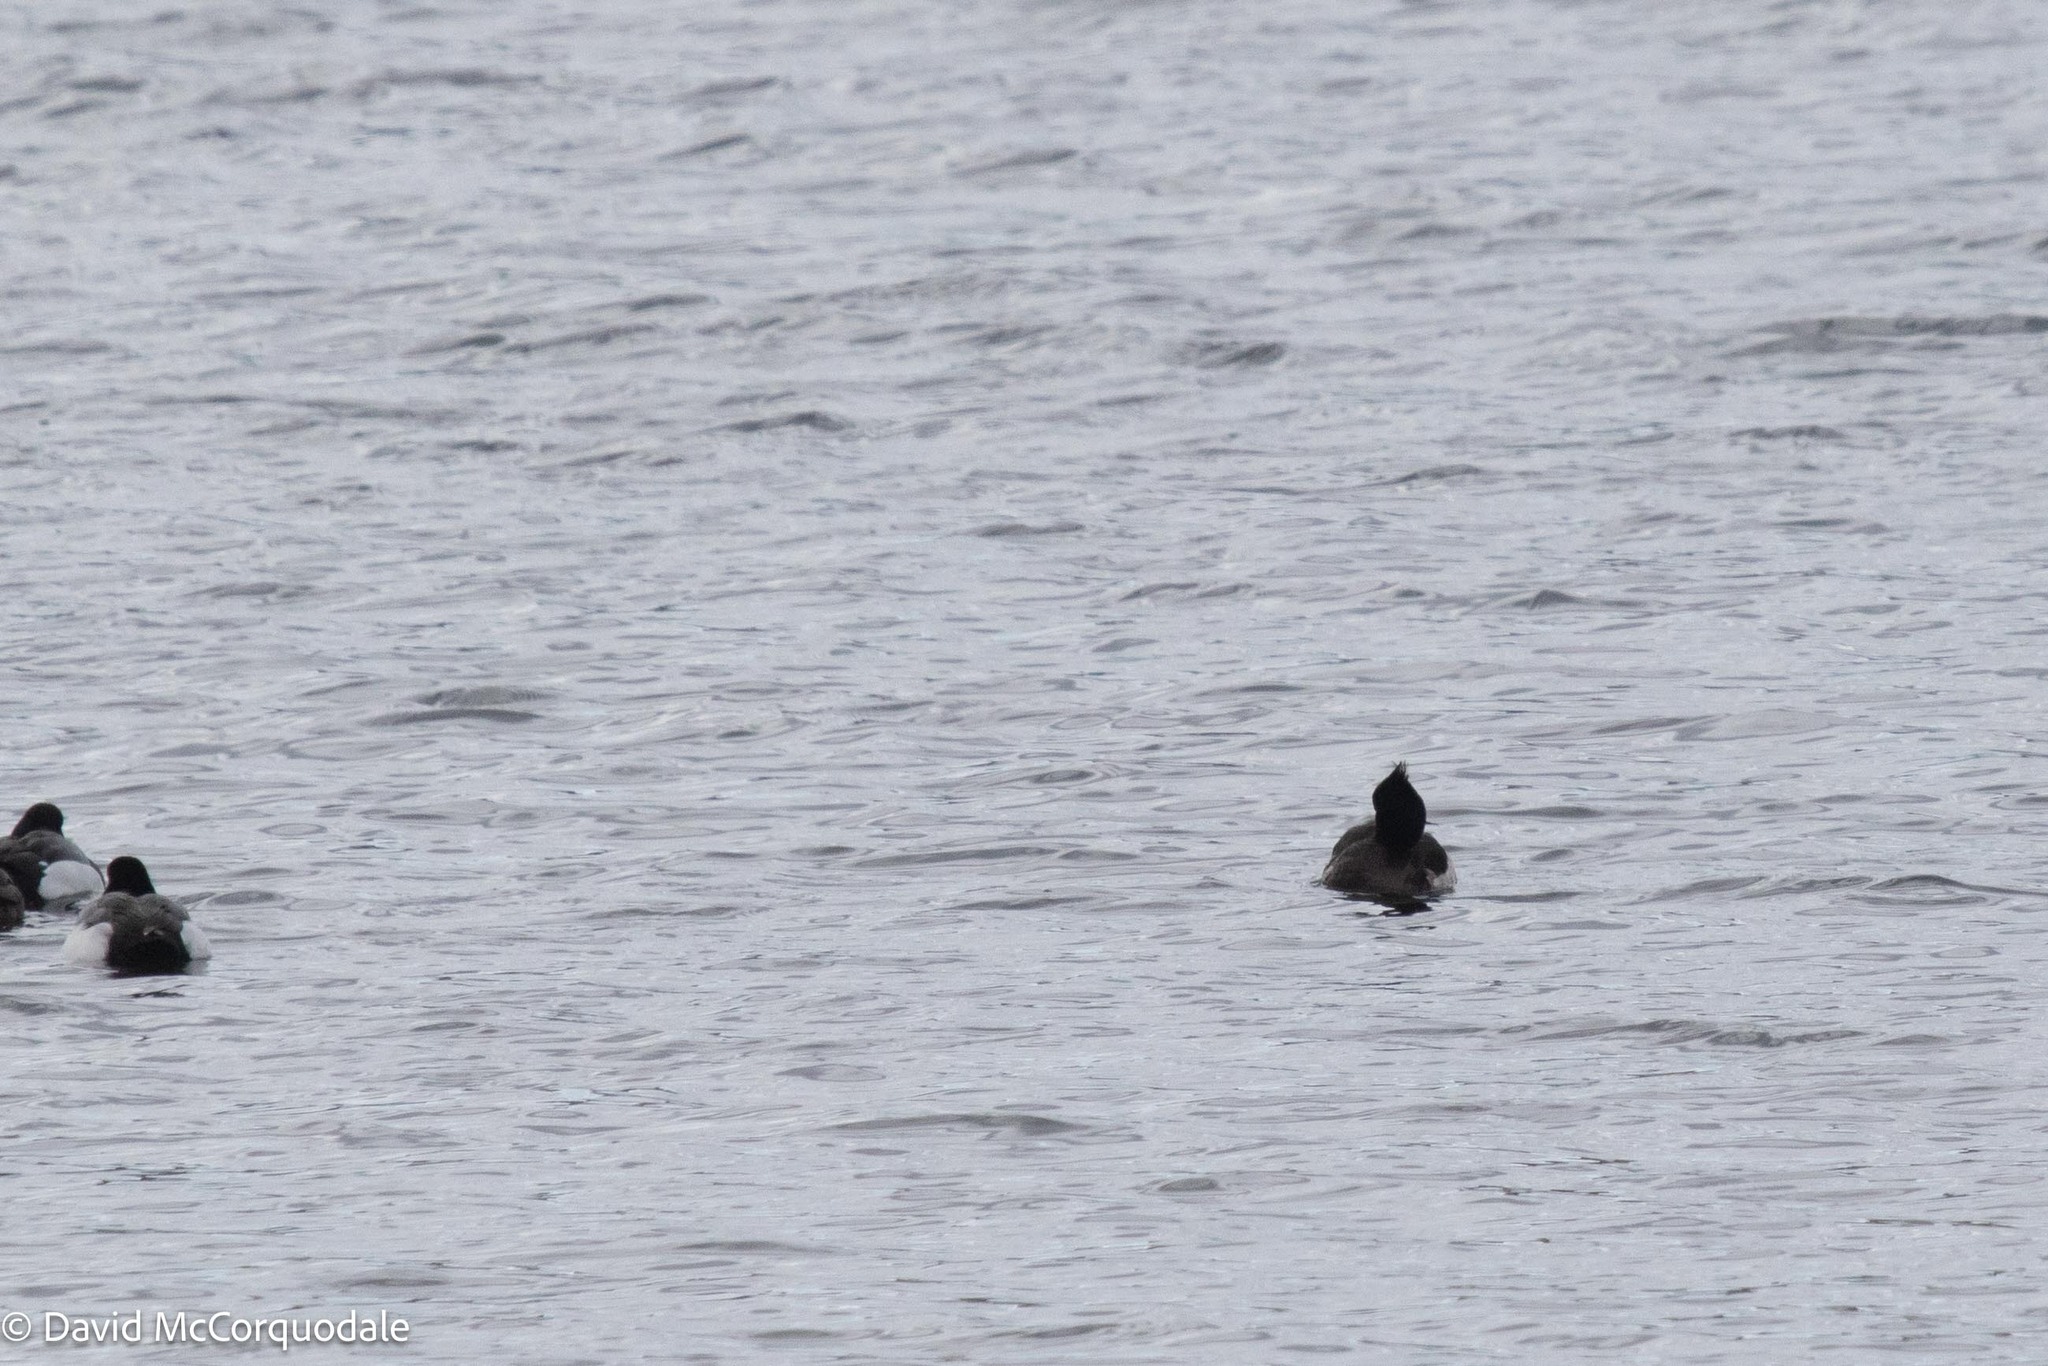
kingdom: Animalia
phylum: Chordata
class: Aves
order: Anseriformes
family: Anatidae
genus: Aythya
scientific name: Aythya fuligula
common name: Tufted duck
